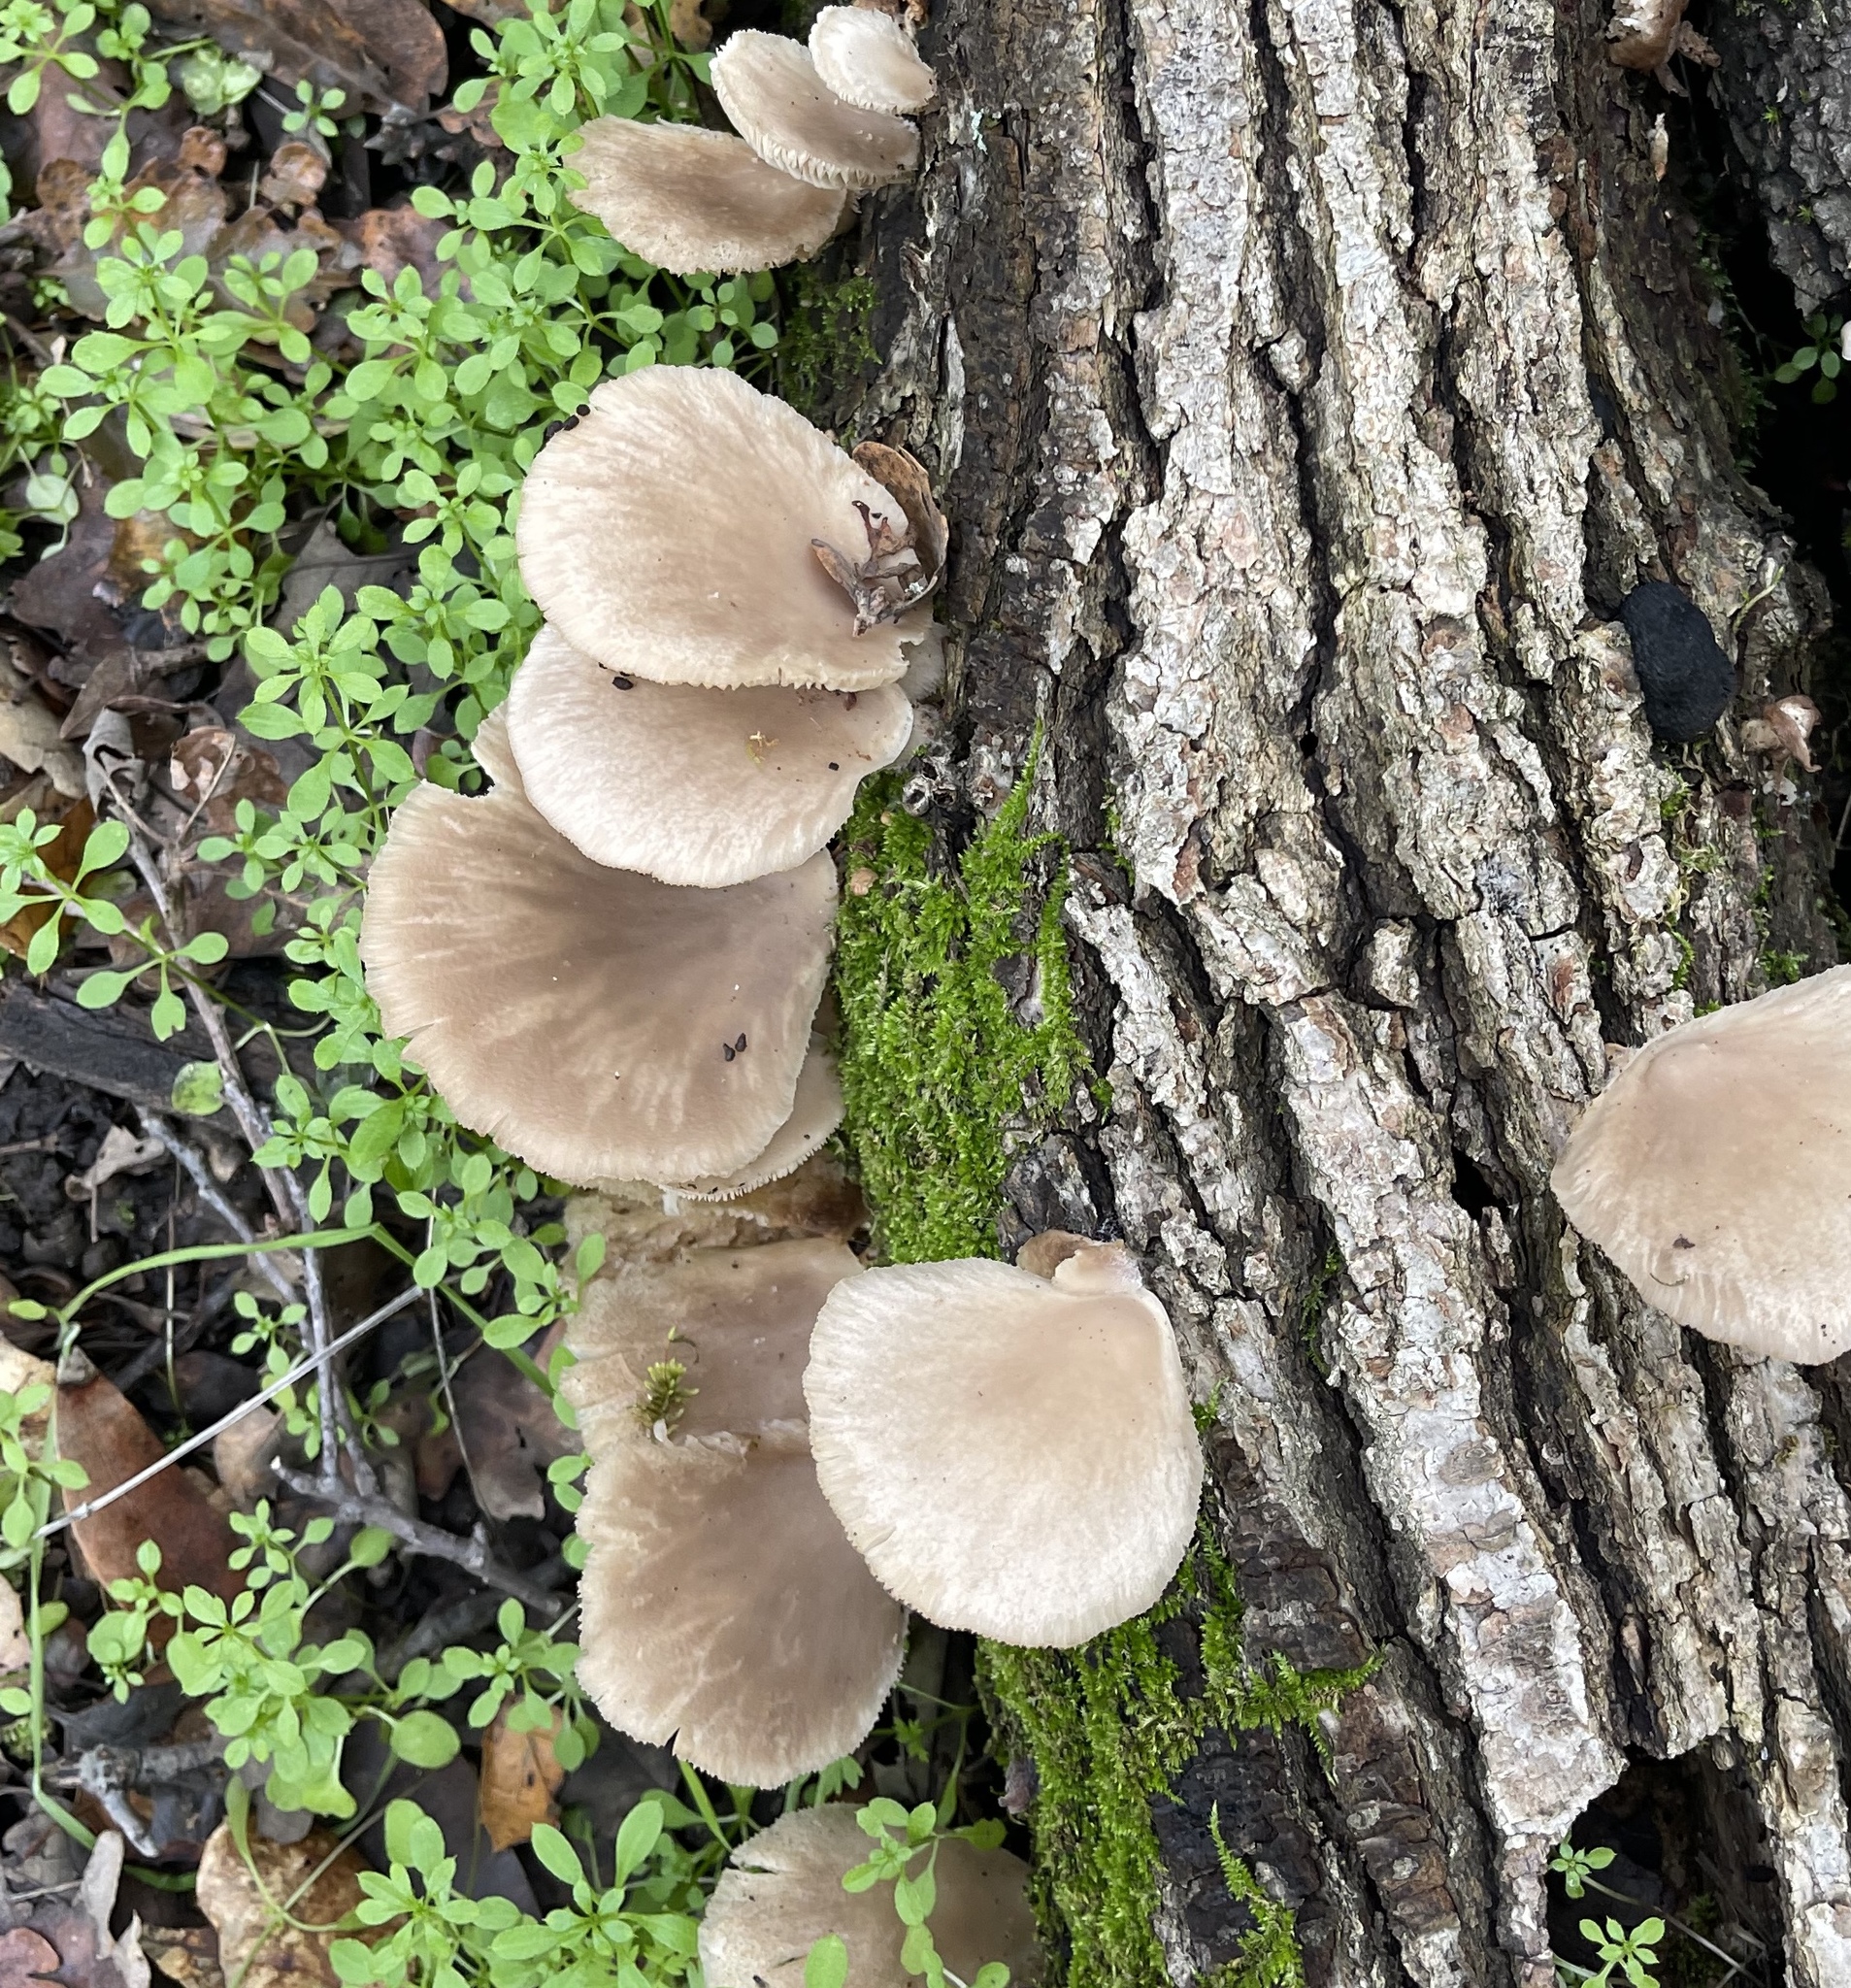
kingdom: Fungi
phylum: Basidiomycota
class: Agaricomycetes
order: Agaricales
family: Pleurotaceae
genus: Pleurotus
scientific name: Pleurotus ostreatus
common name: Oyster mushroom
